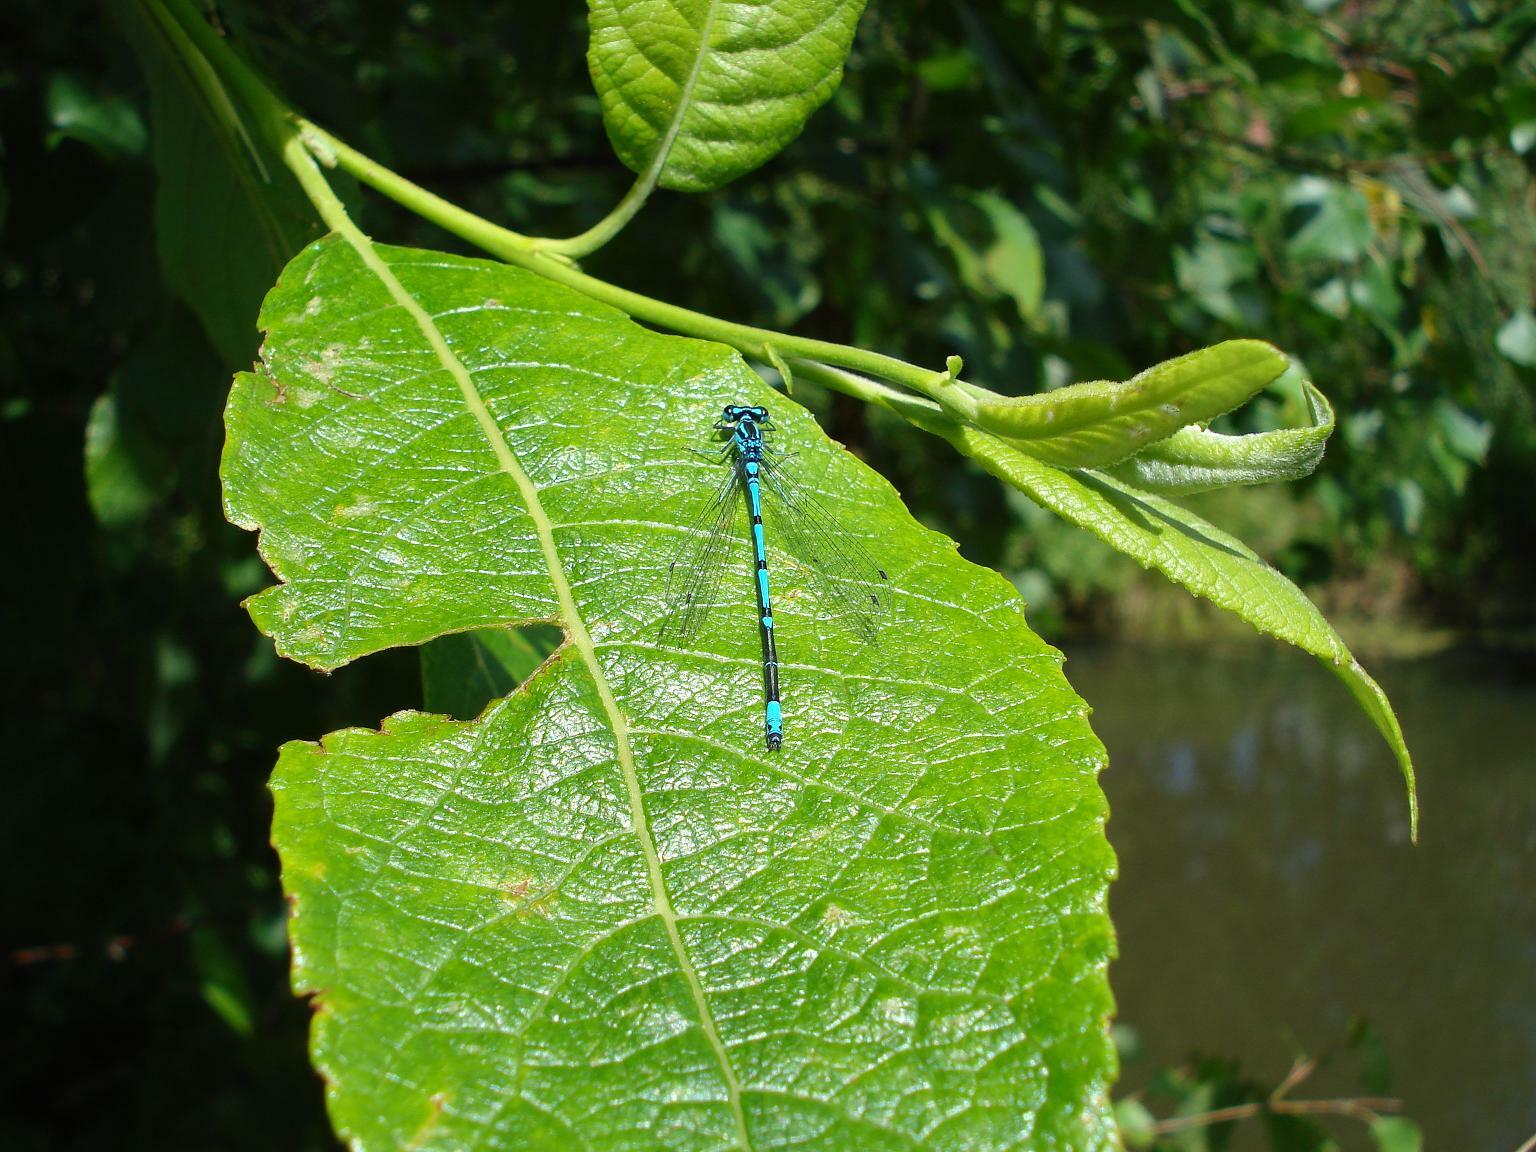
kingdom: Animalia
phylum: Arthropoda
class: Insecta
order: Odonata
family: Coenagrionidae
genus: Coenagrion
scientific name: Coenagrion puella
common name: Azure damselfly
